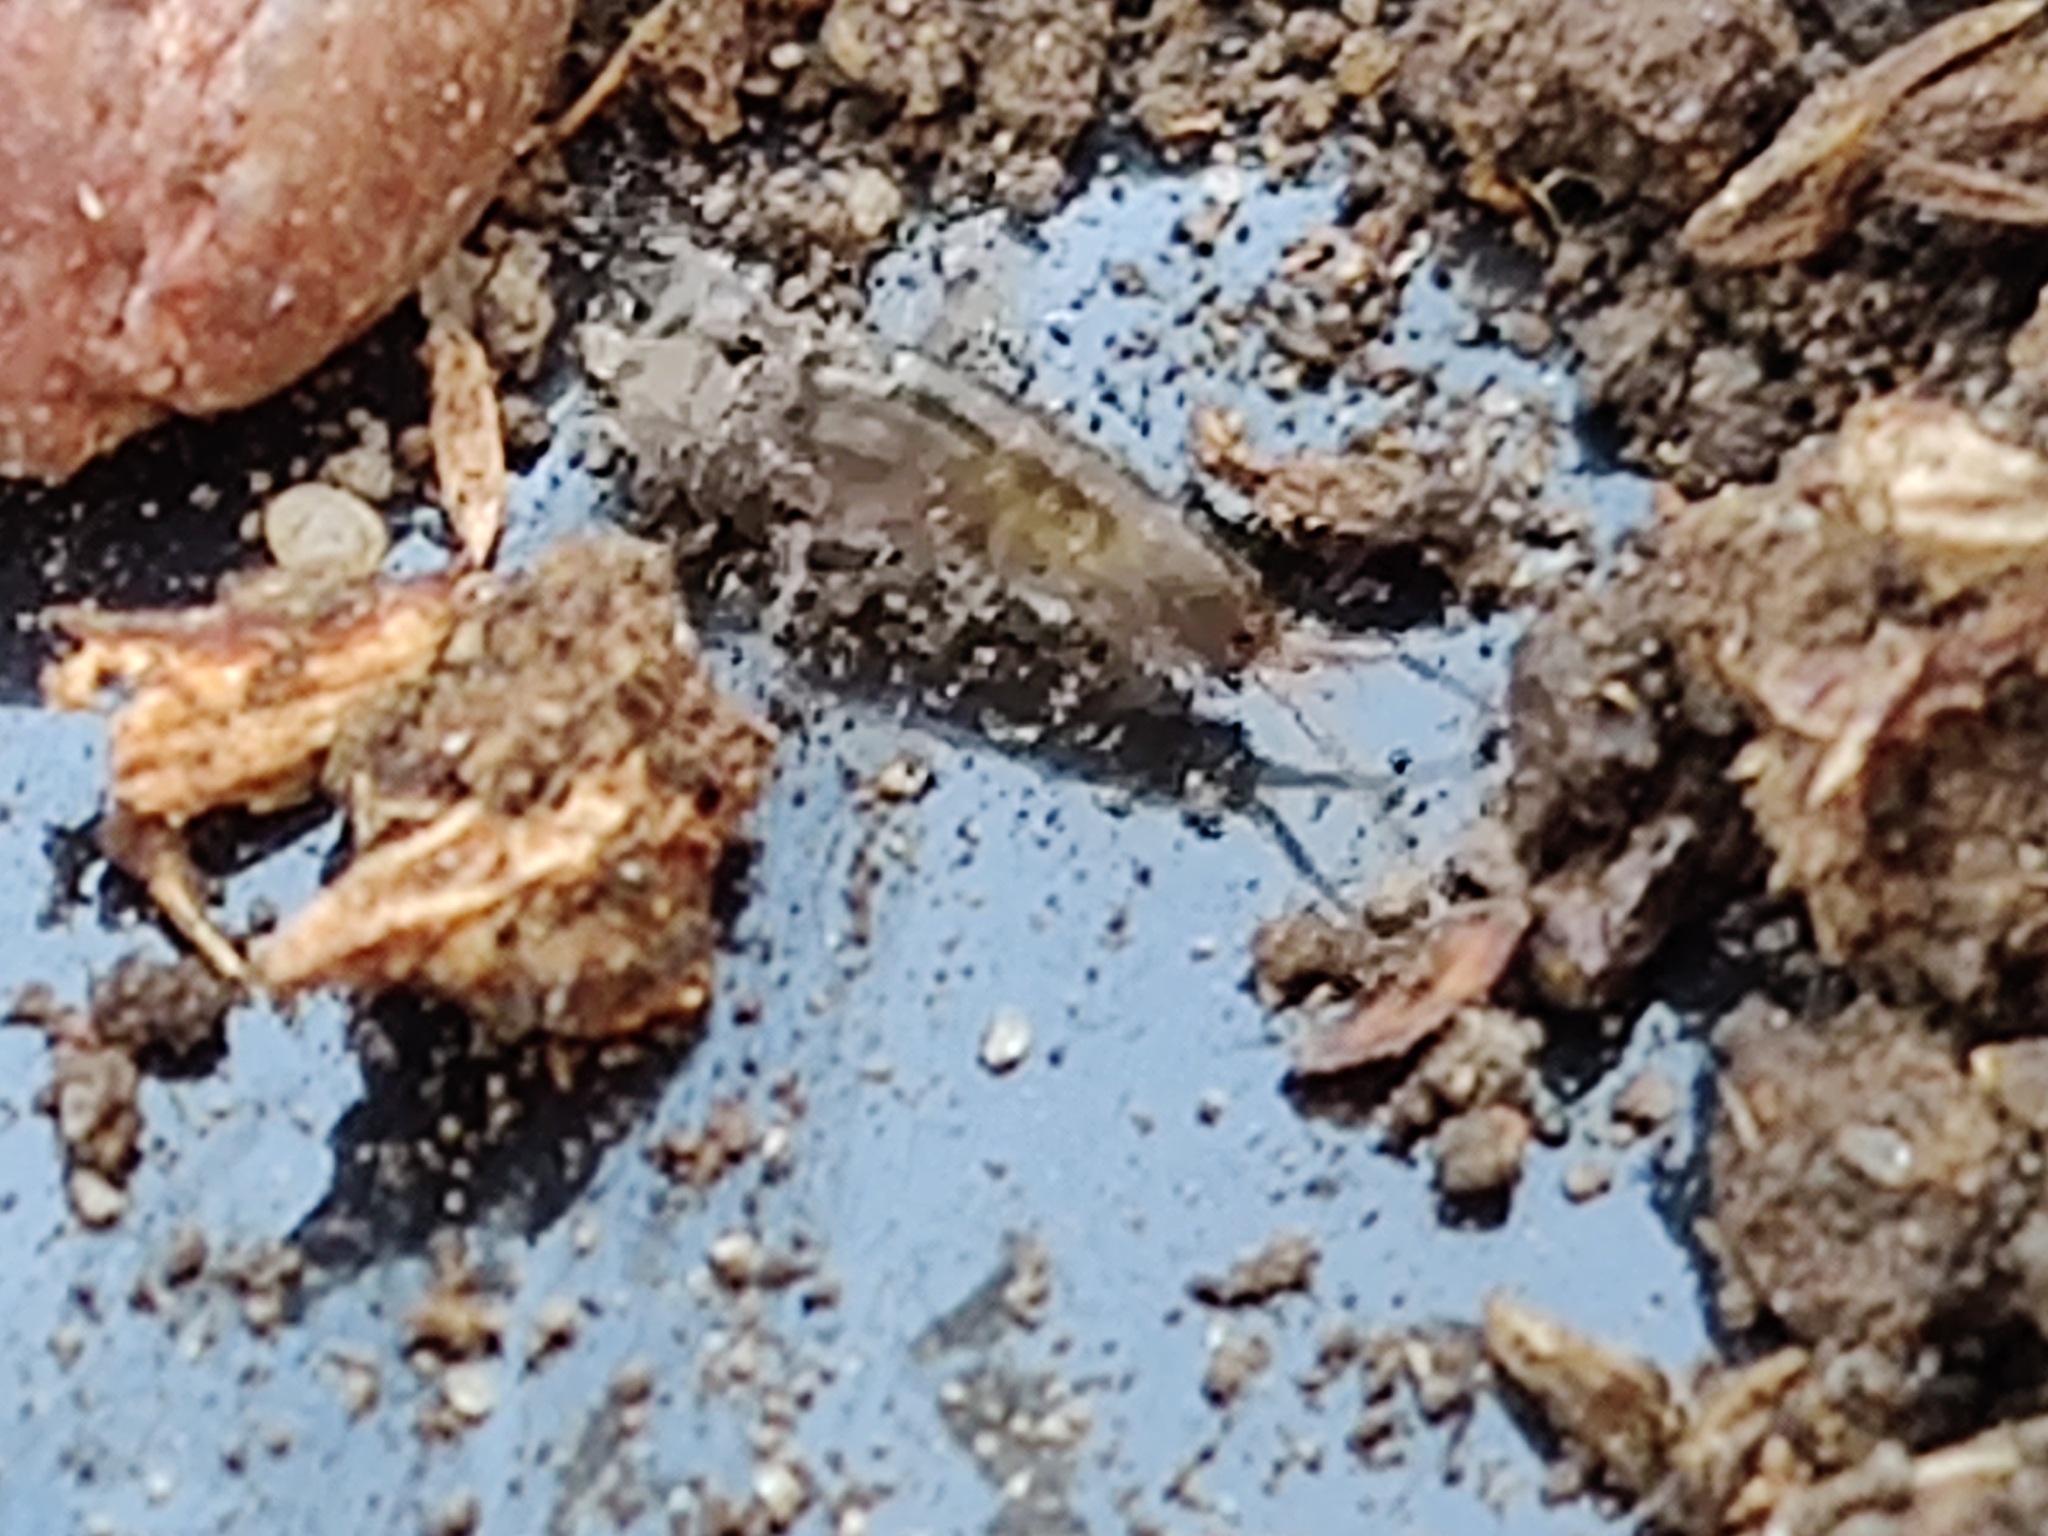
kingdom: Animalia
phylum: Arthropoda
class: Malacostraca
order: Amphipoda
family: Arcitalitridae
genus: Arcitalitrus
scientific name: Arcitalitrus dorrieni
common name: Landhopper
